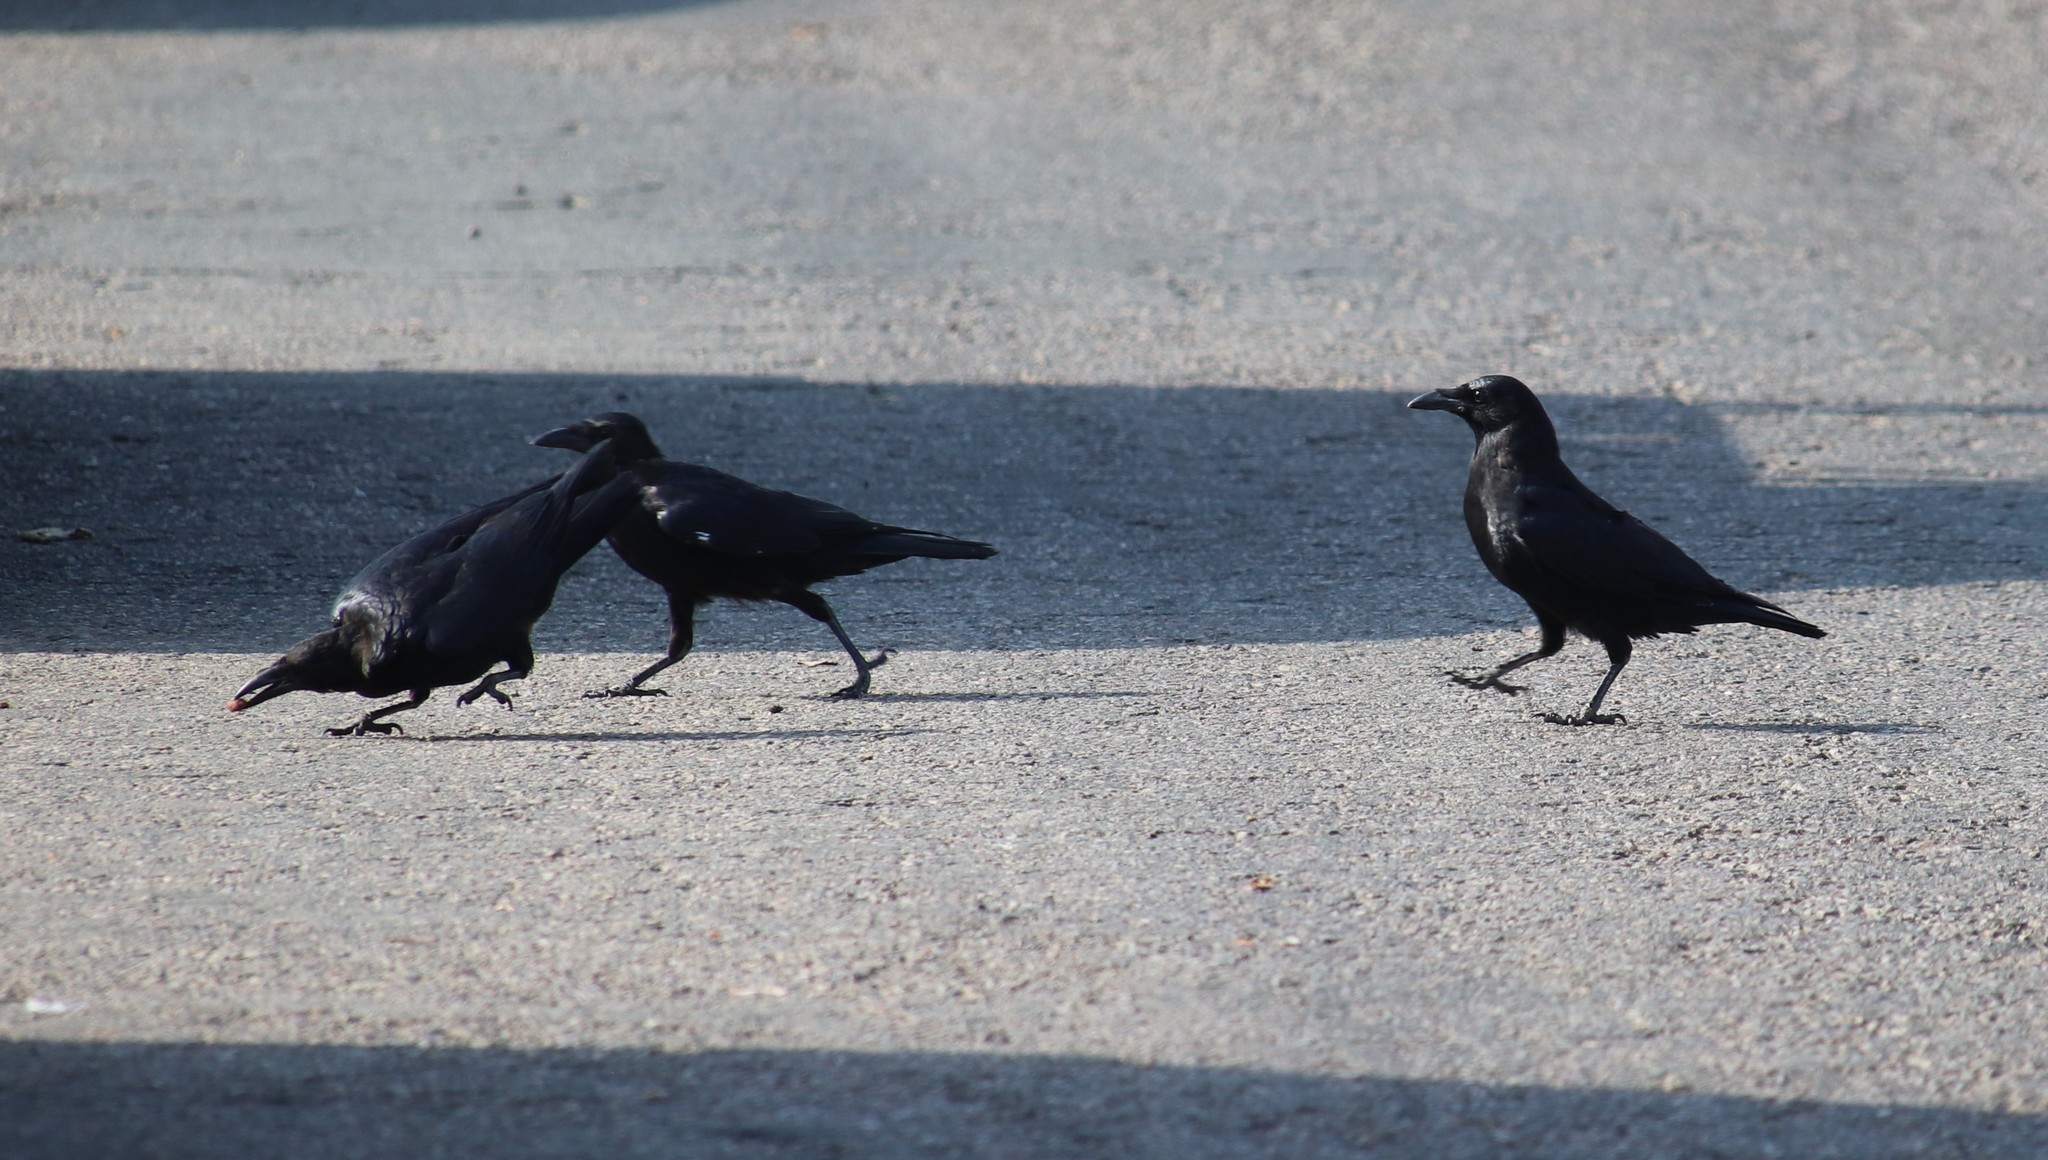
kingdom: Animalia
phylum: Chordata
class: Aves
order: Passeriformes
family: Corvidae
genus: Corvus
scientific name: Corvus brachyrhynchos
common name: American crow
